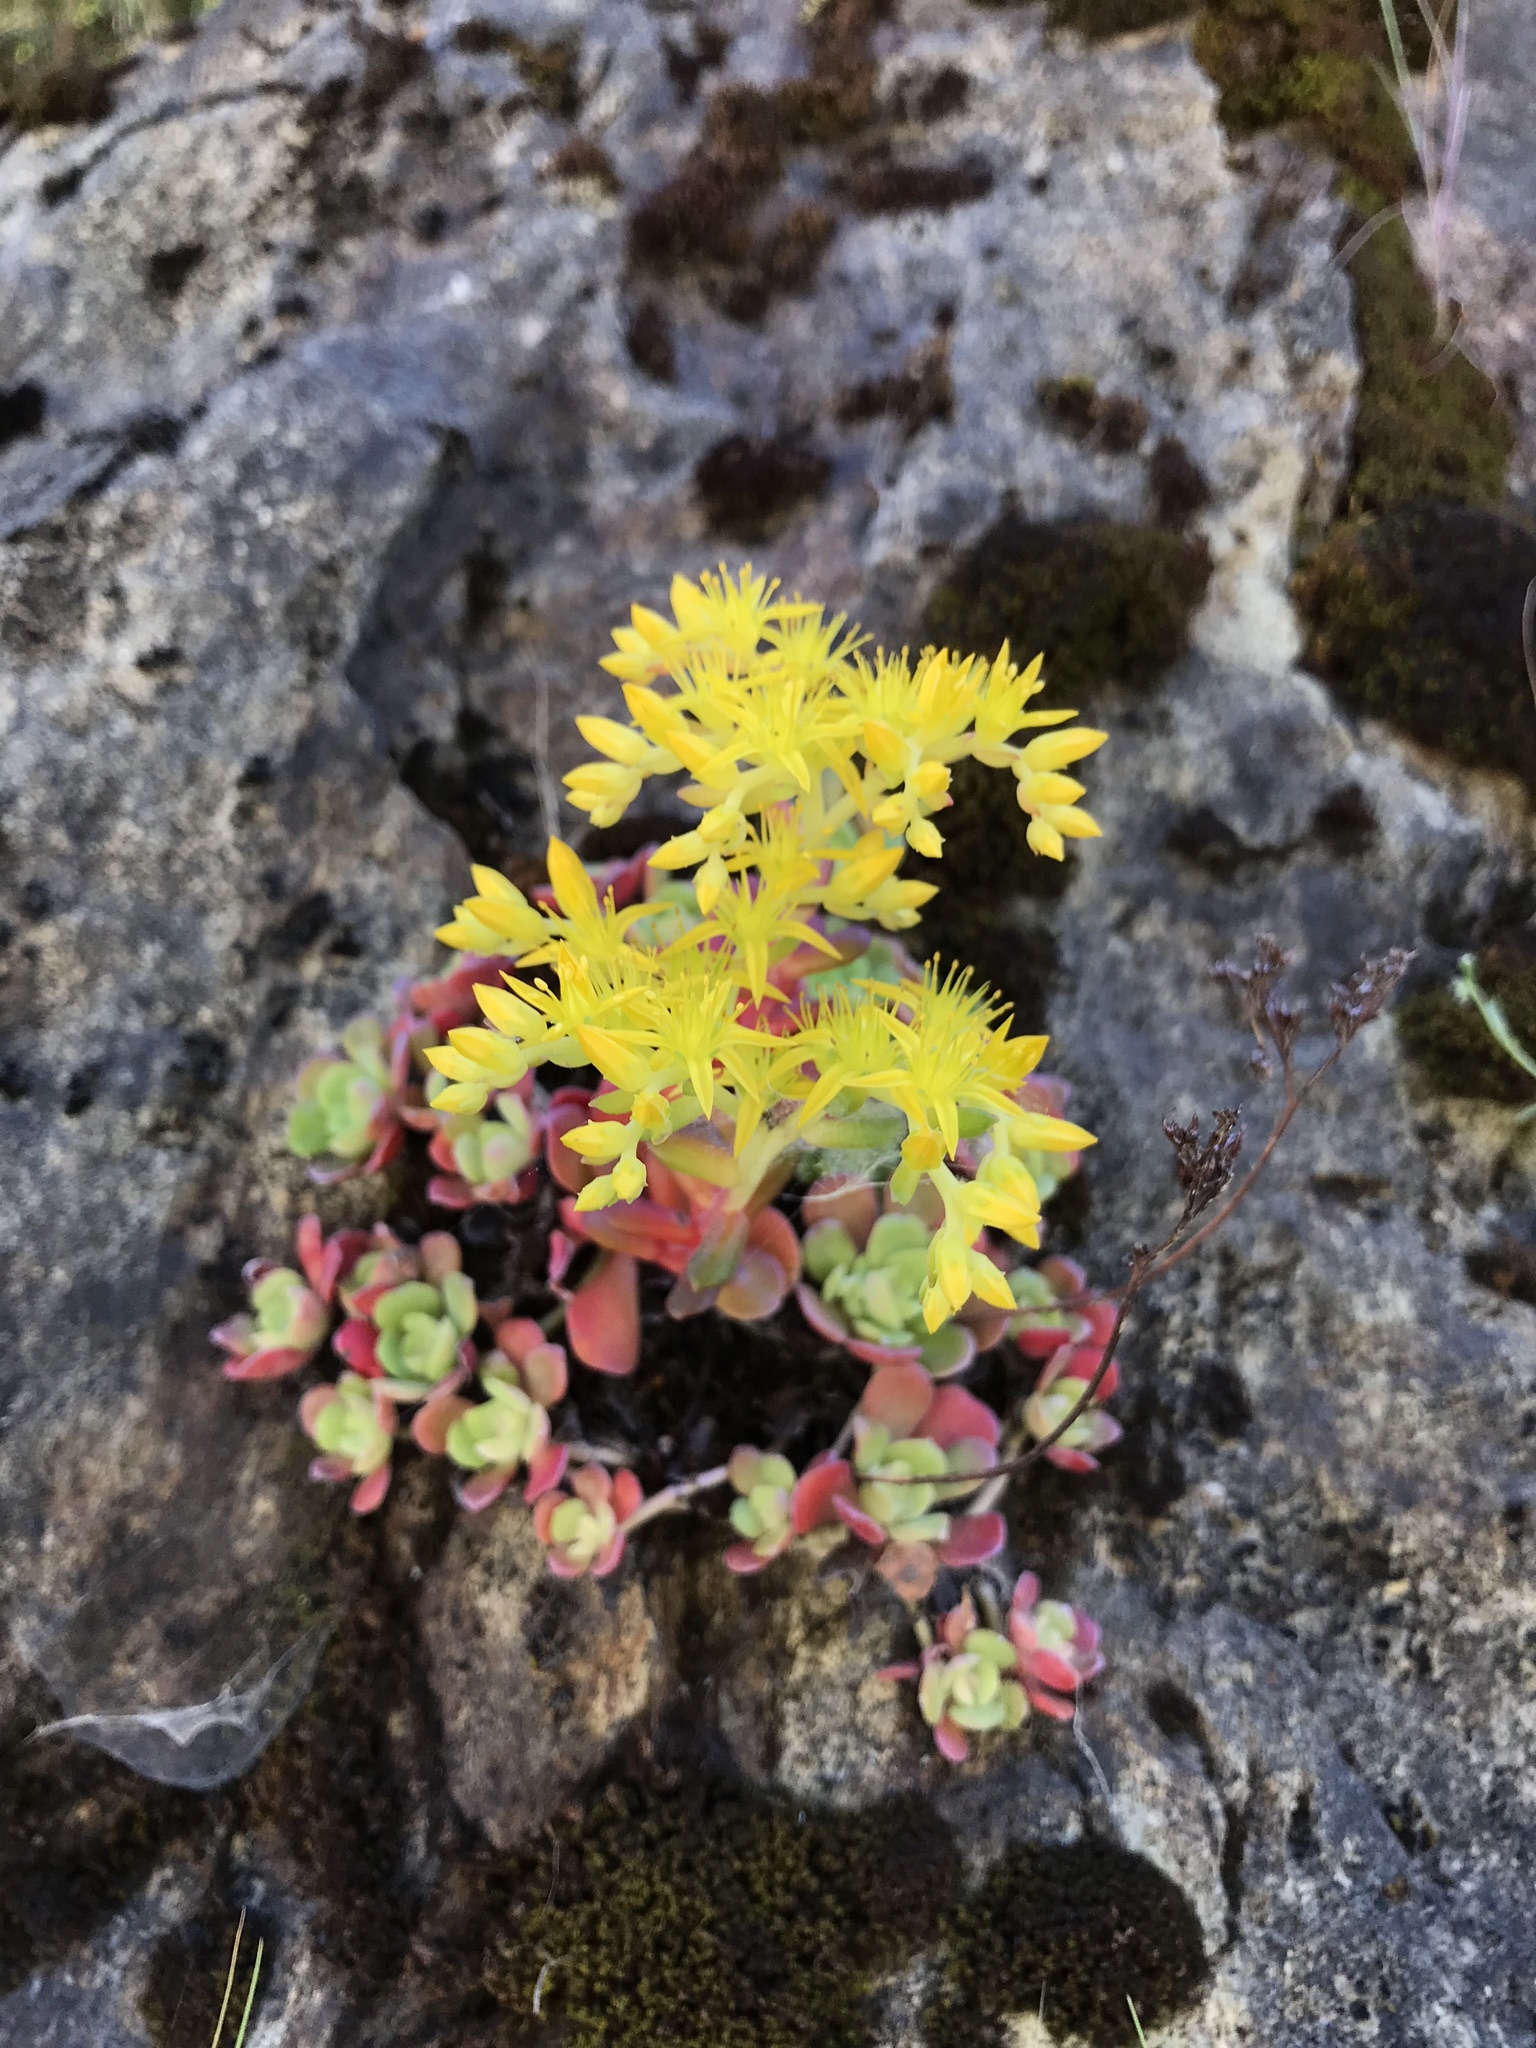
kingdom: Plantae
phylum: Tracheophyta
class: Magnoliopsida
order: Saxifragales
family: Crassulaceae
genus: Sedum
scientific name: Sedum spathulifolium
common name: Colorado stonecrop
